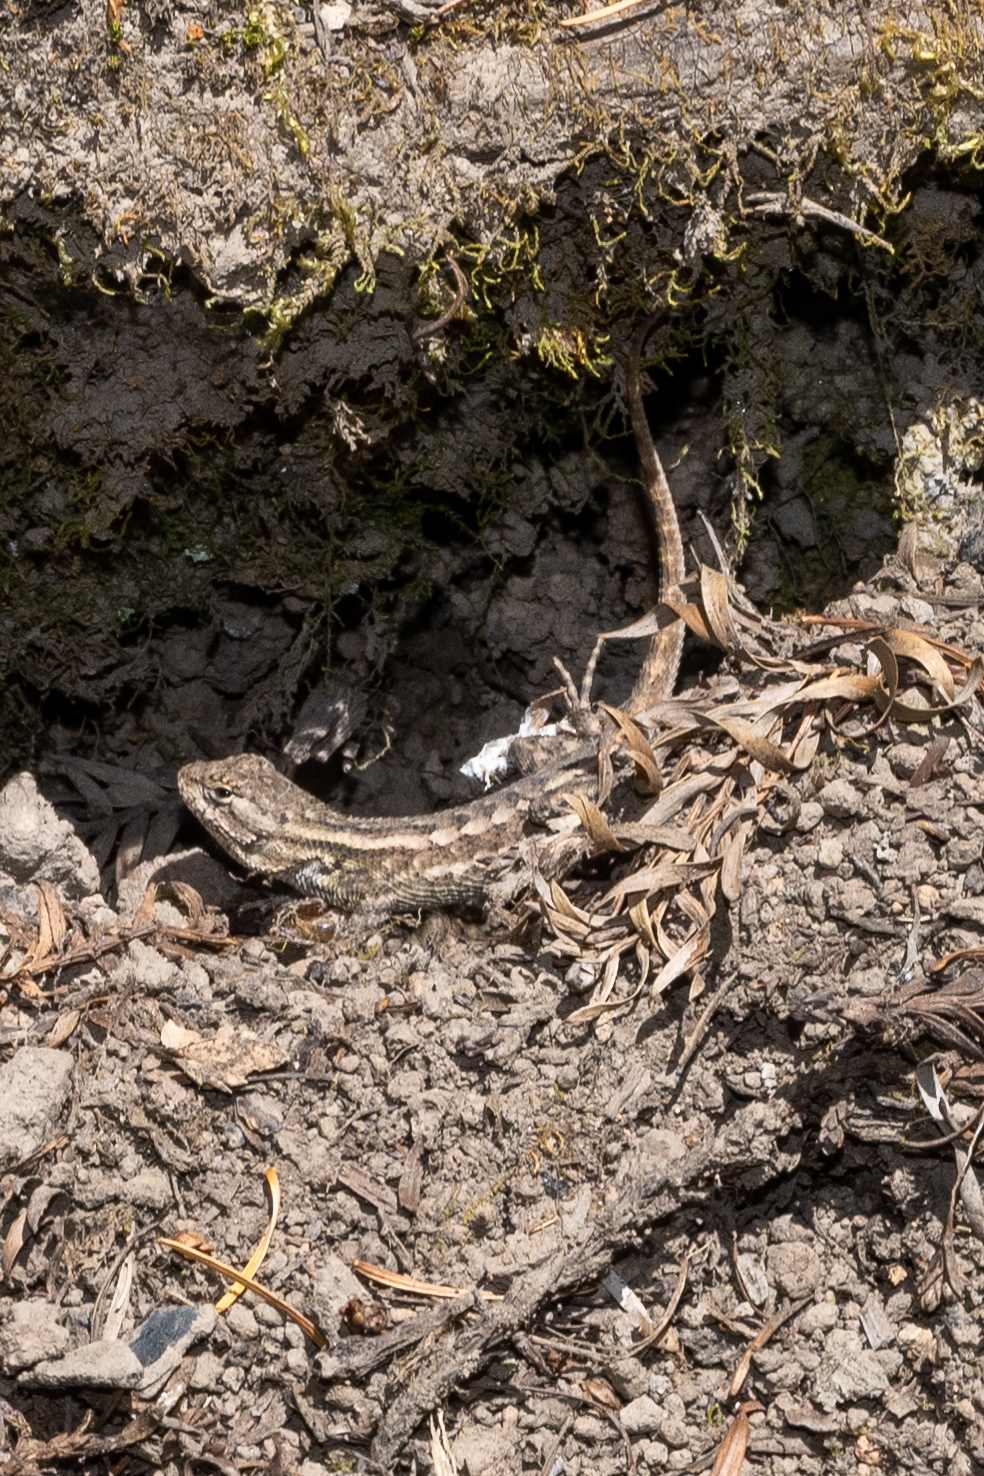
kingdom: Animalia
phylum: Chordata
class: Squamata
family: Phrynosomatidae
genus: Sceloporus
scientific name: Sceloporus occidentalis
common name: Western fence lizard
